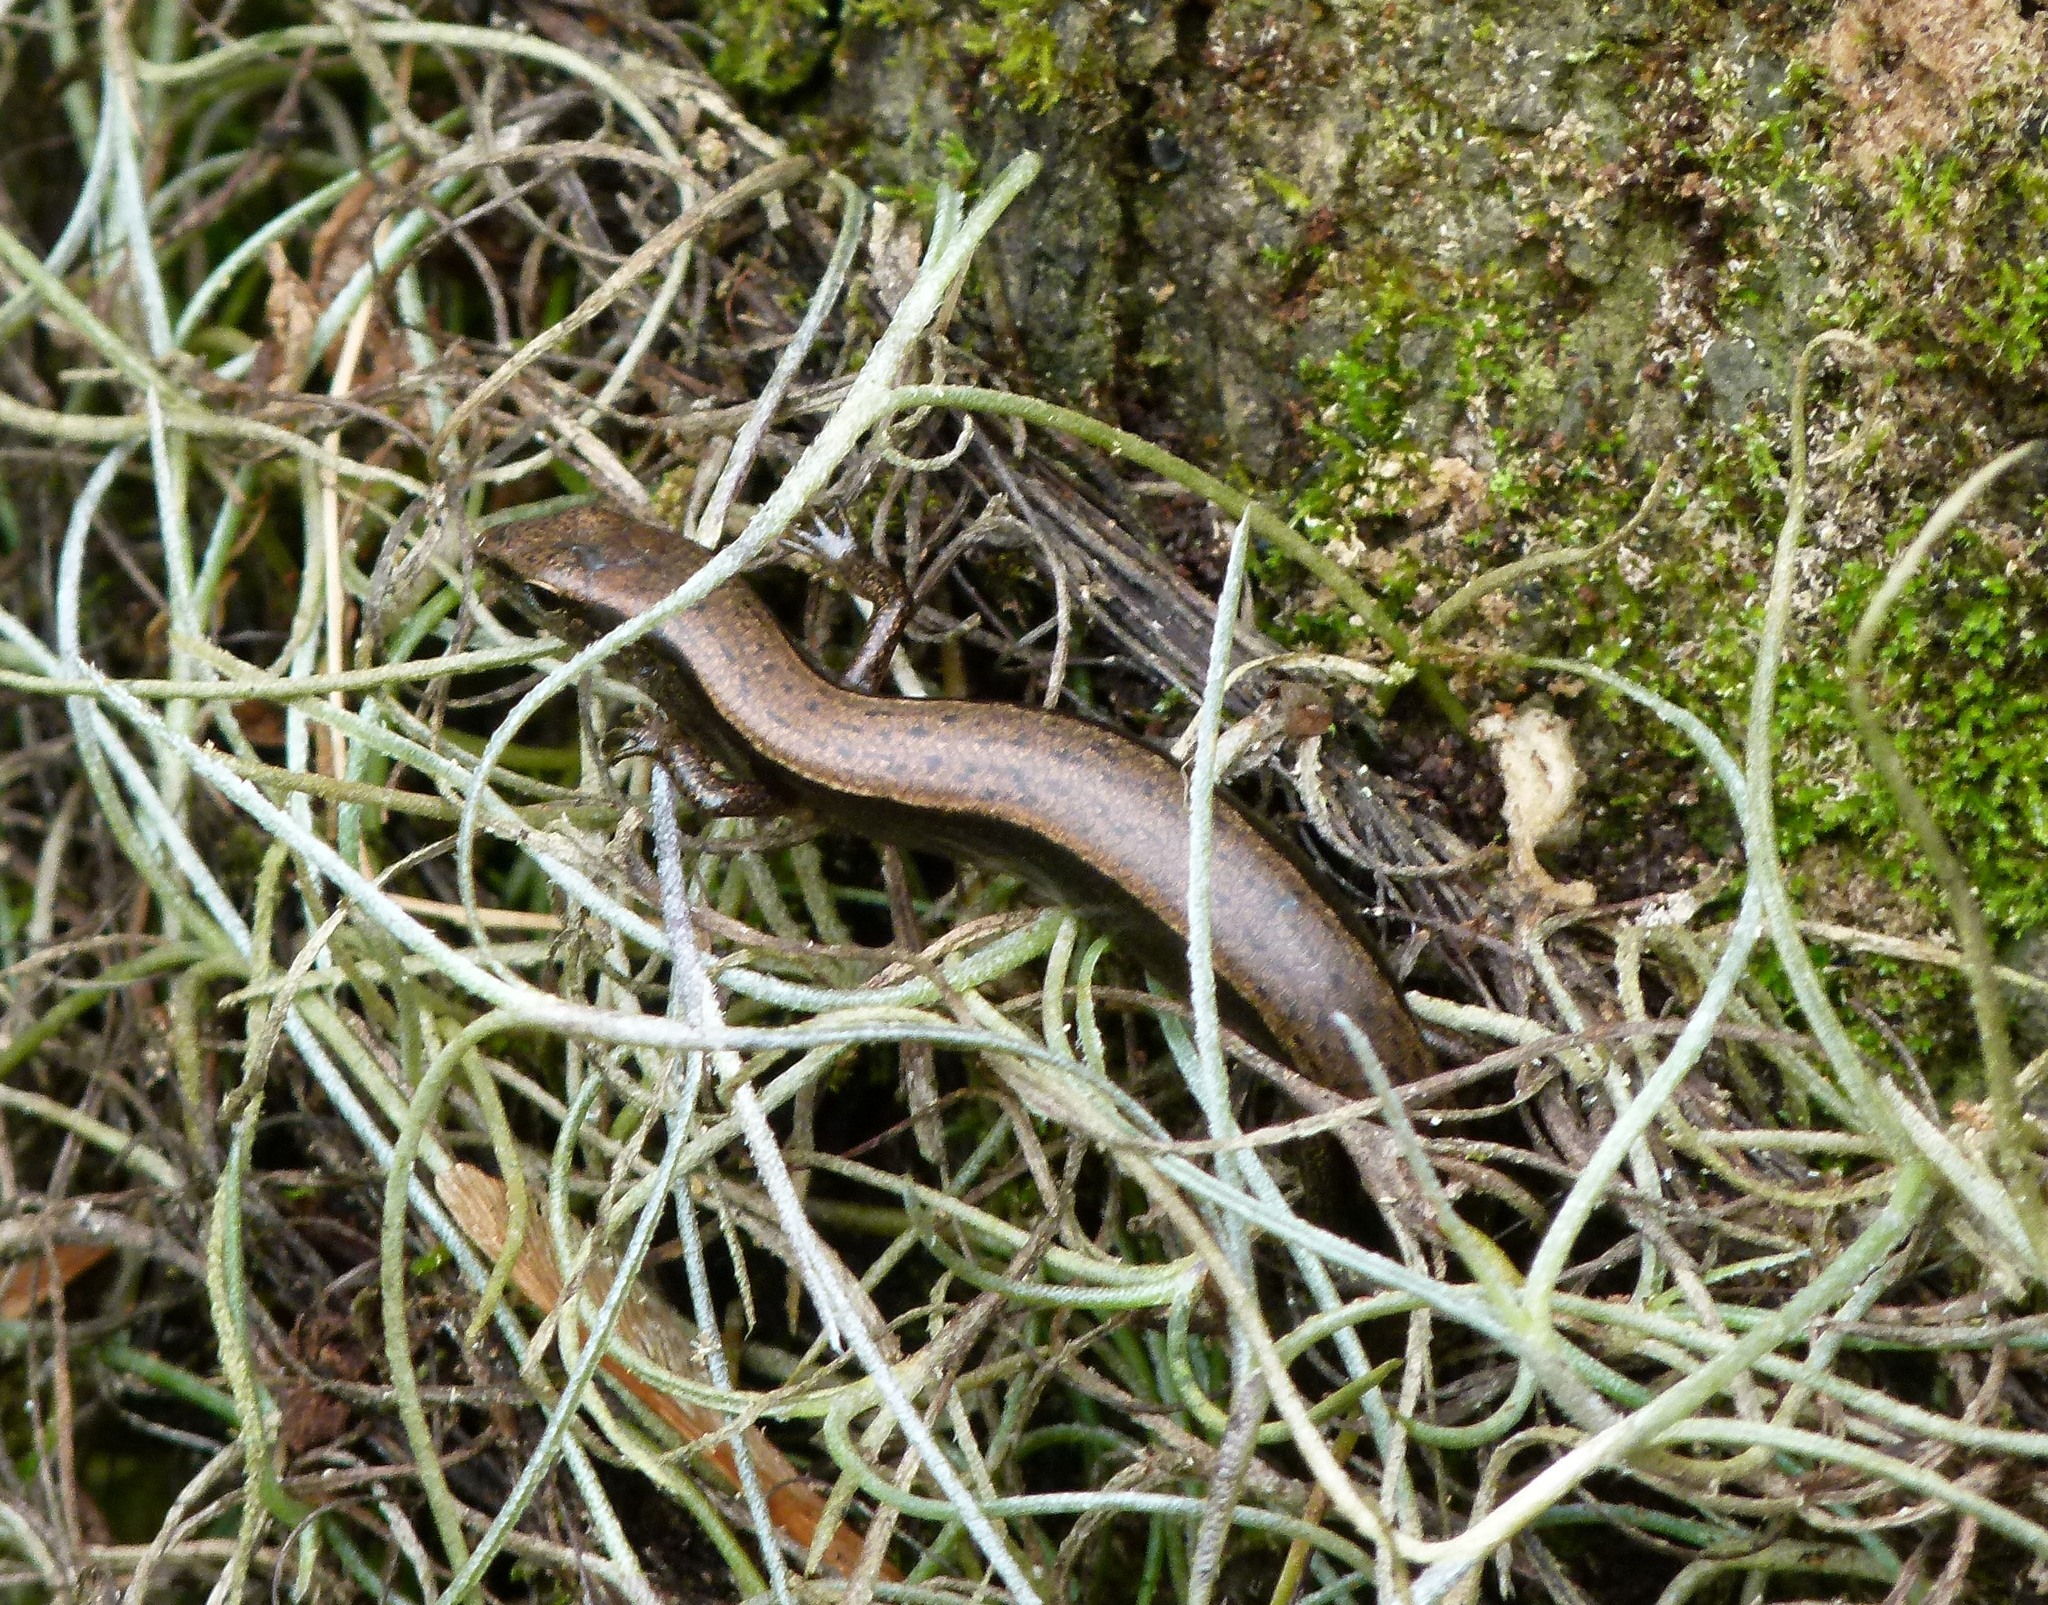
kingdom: Animalia
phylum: Chordata
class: Squamata
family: Scincidae
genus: Scincella
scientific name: Scincella lateralis
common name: Ground skink
